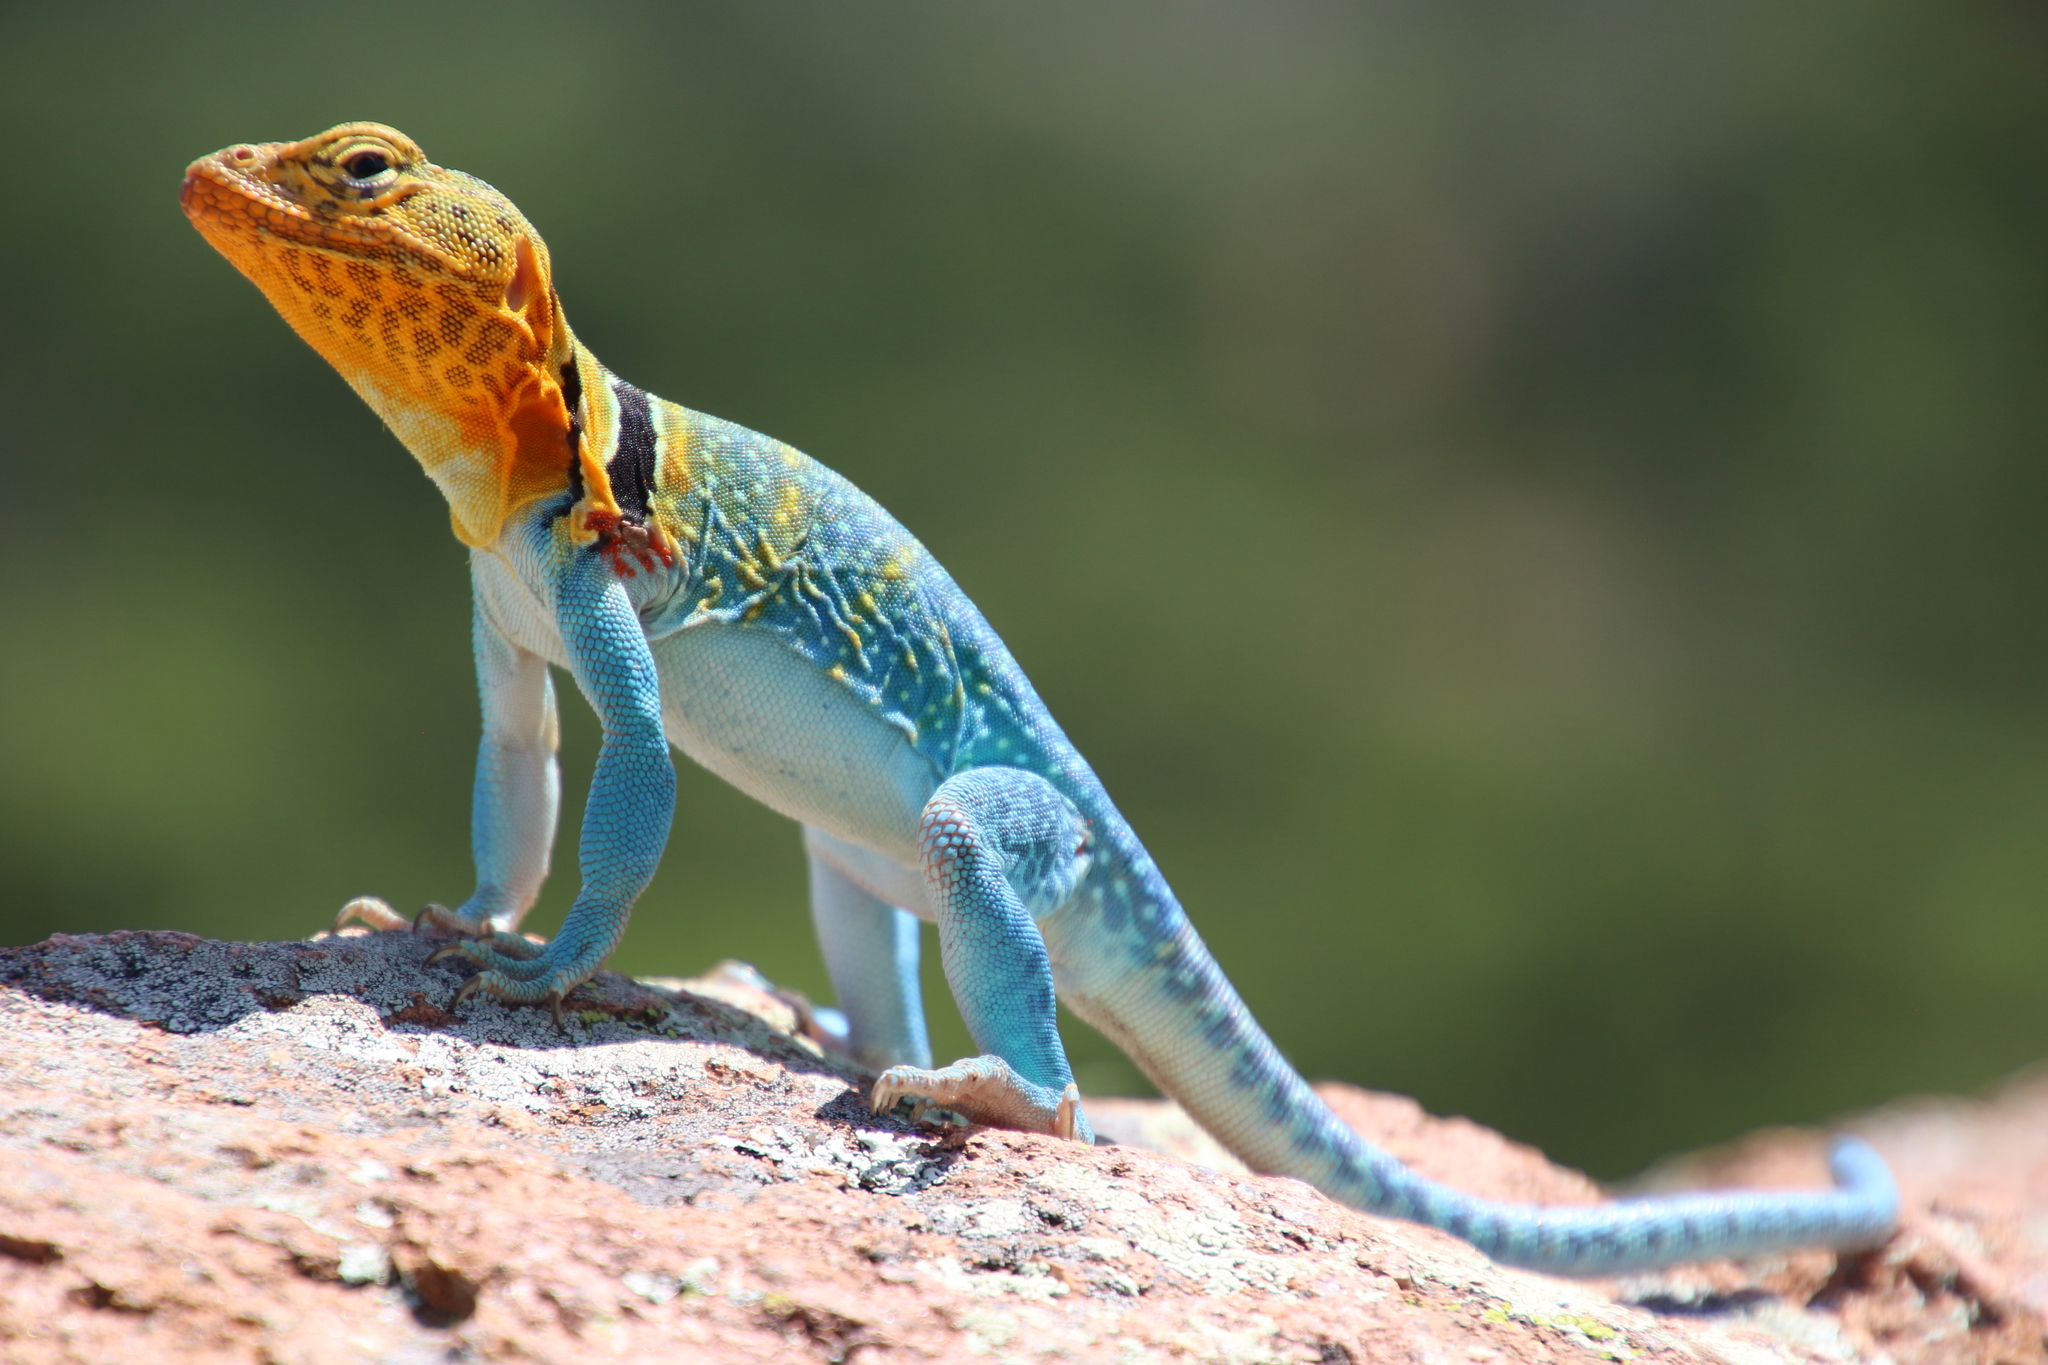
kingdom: Animalia
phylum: Chordata
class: Squamata
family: Crotaphytidae
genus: Crotaphytus
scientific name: Crotaphytus collaris
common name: Collared lizard
